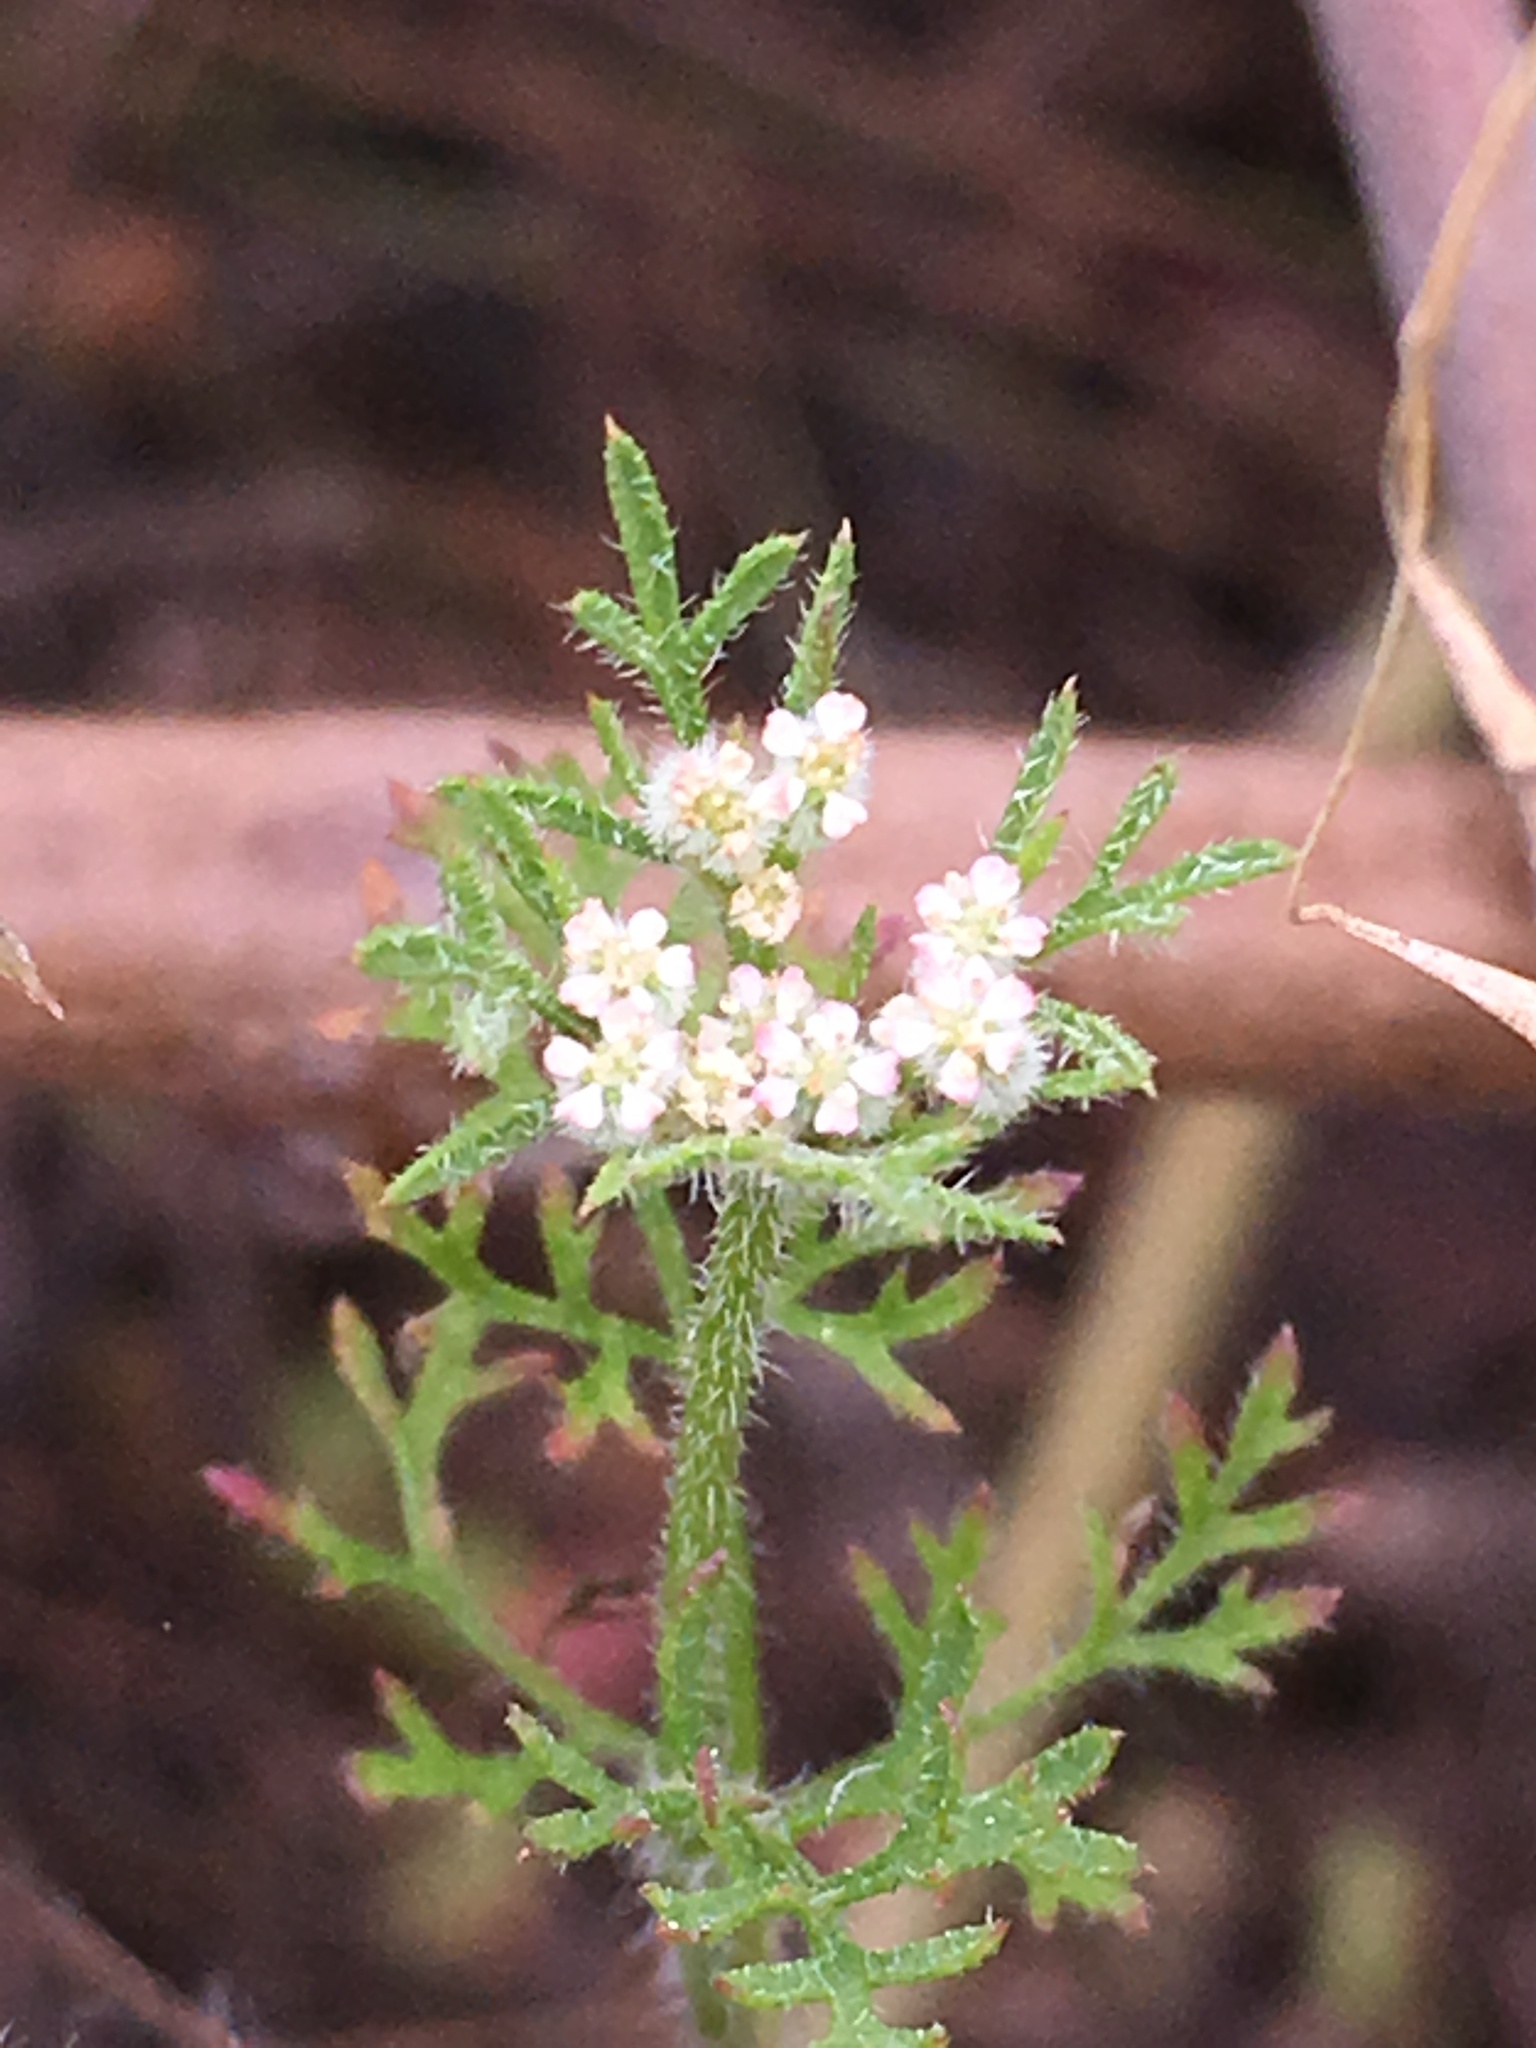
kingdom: Plantae
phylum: Tracheophyta
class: Magnoliopsida
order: Apiales
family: Apiaceae
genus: Daucus
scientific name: Daucus pusillus
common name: Southwest wild carrot
